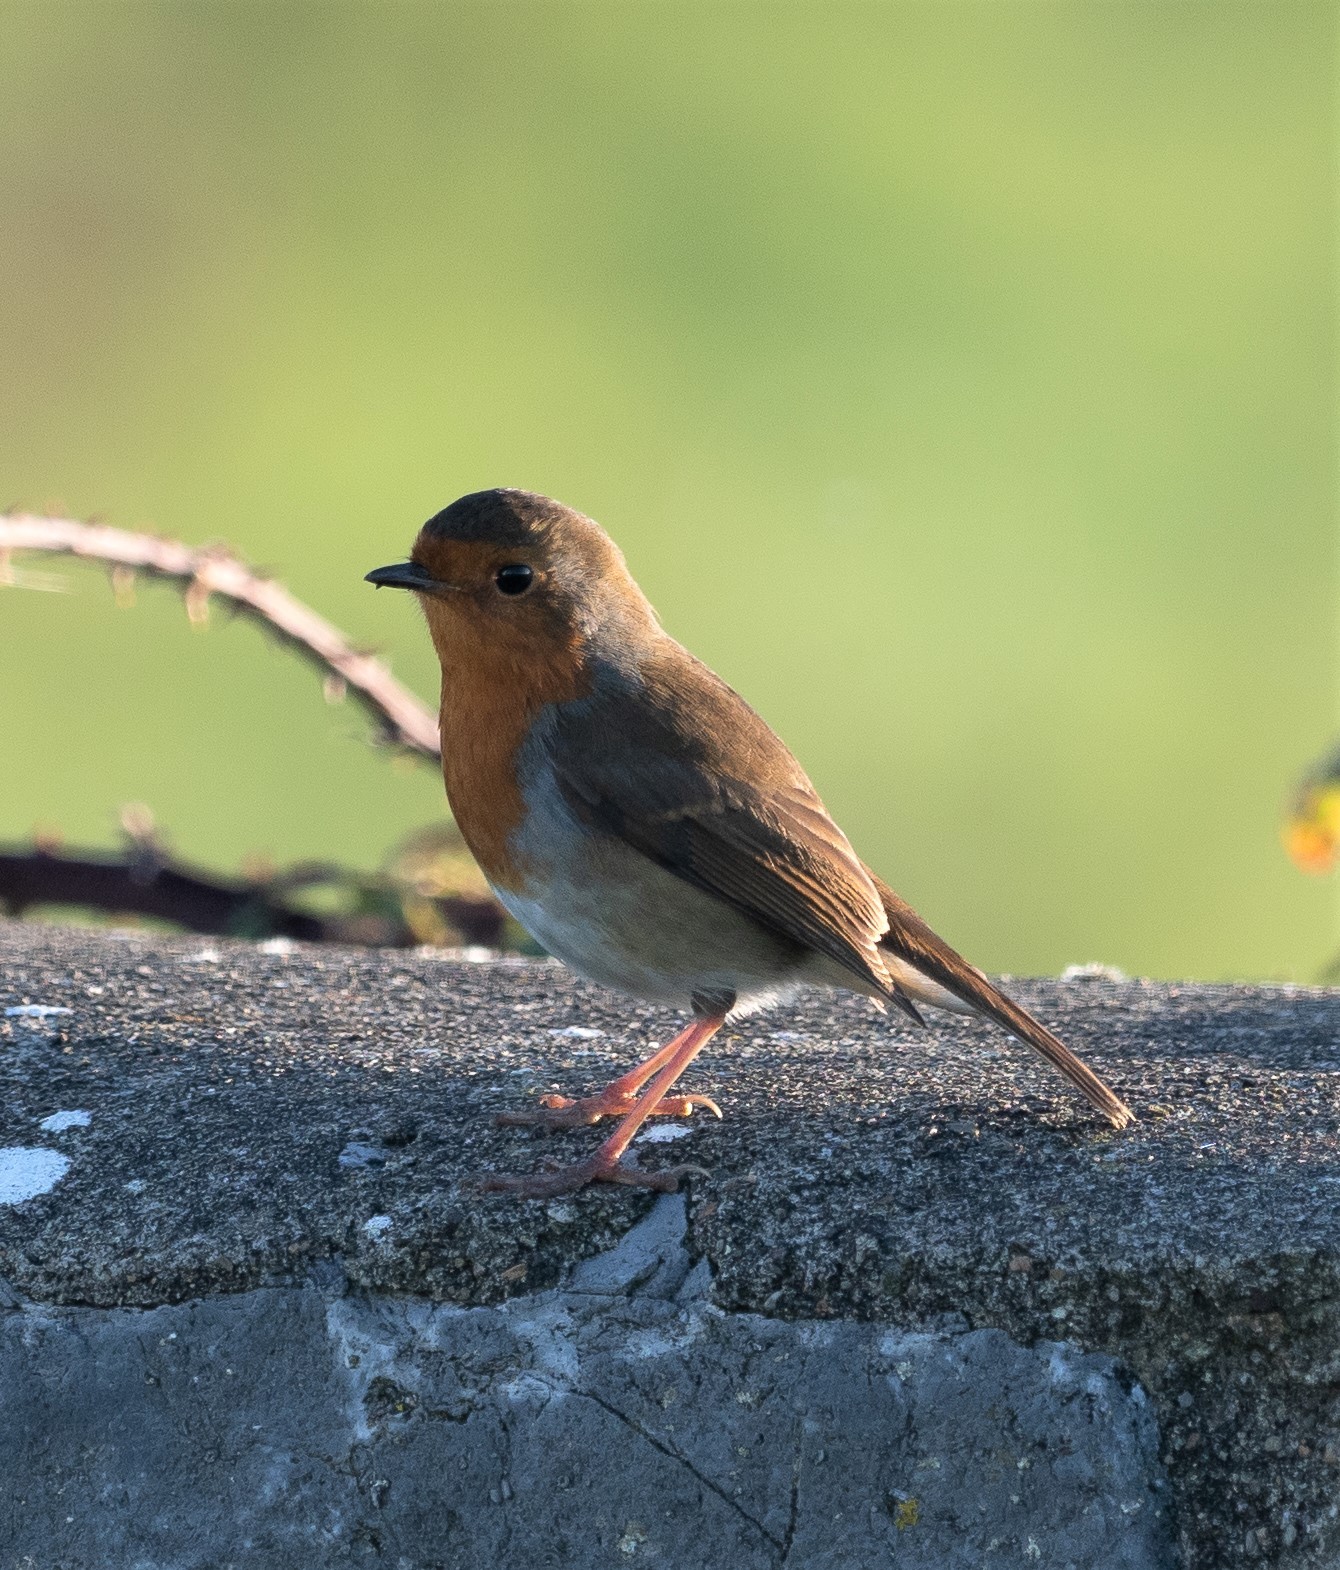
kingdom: Animalia
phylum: Chordata
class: Aves
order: Passeriformes
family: Muscicapidae
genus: Erithacus
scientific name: Erithacus rubecula
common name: European robin
